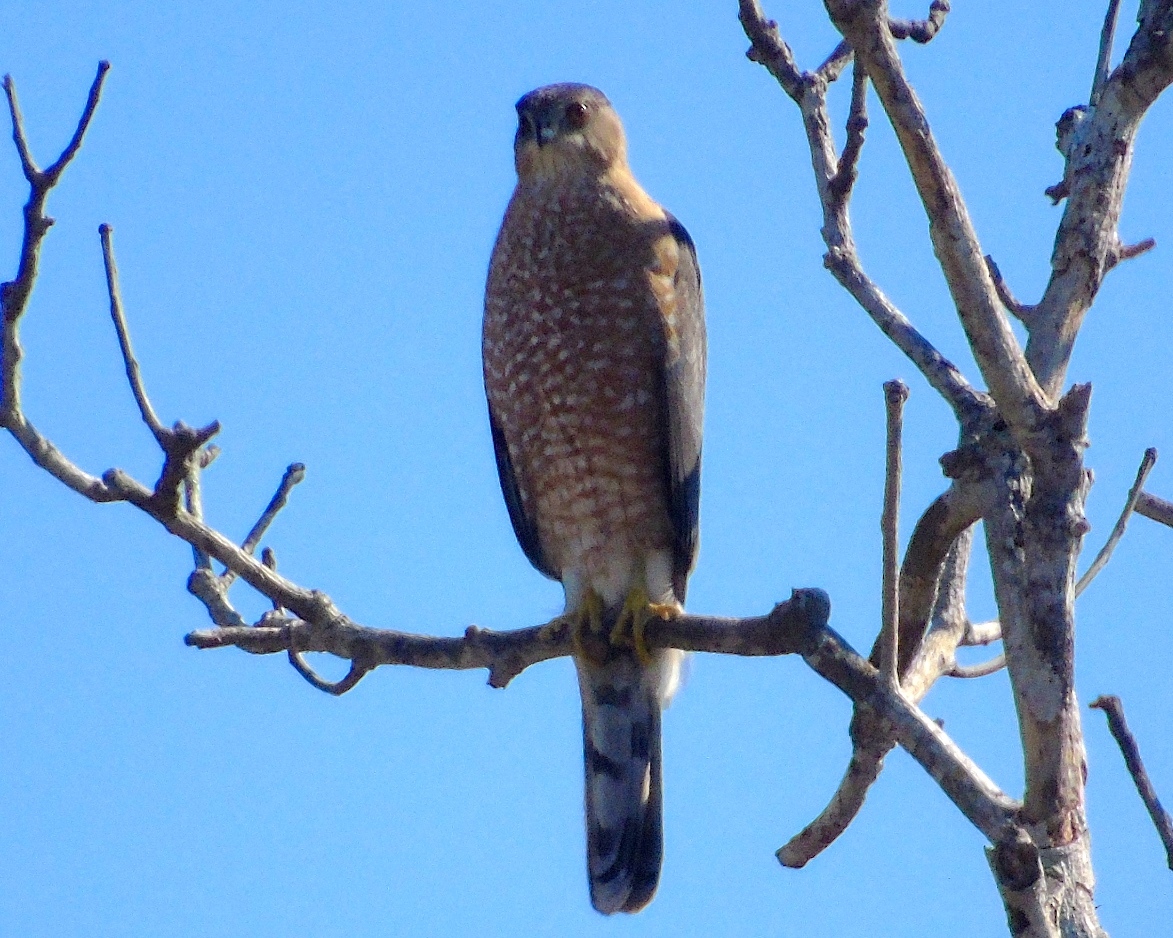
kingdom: Animalia
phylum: Chordata
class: Aves
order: Accipitriformes
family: Accipitridae
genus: Accipiter
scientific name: Accipiter cooperii
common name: Cooper's hawk
